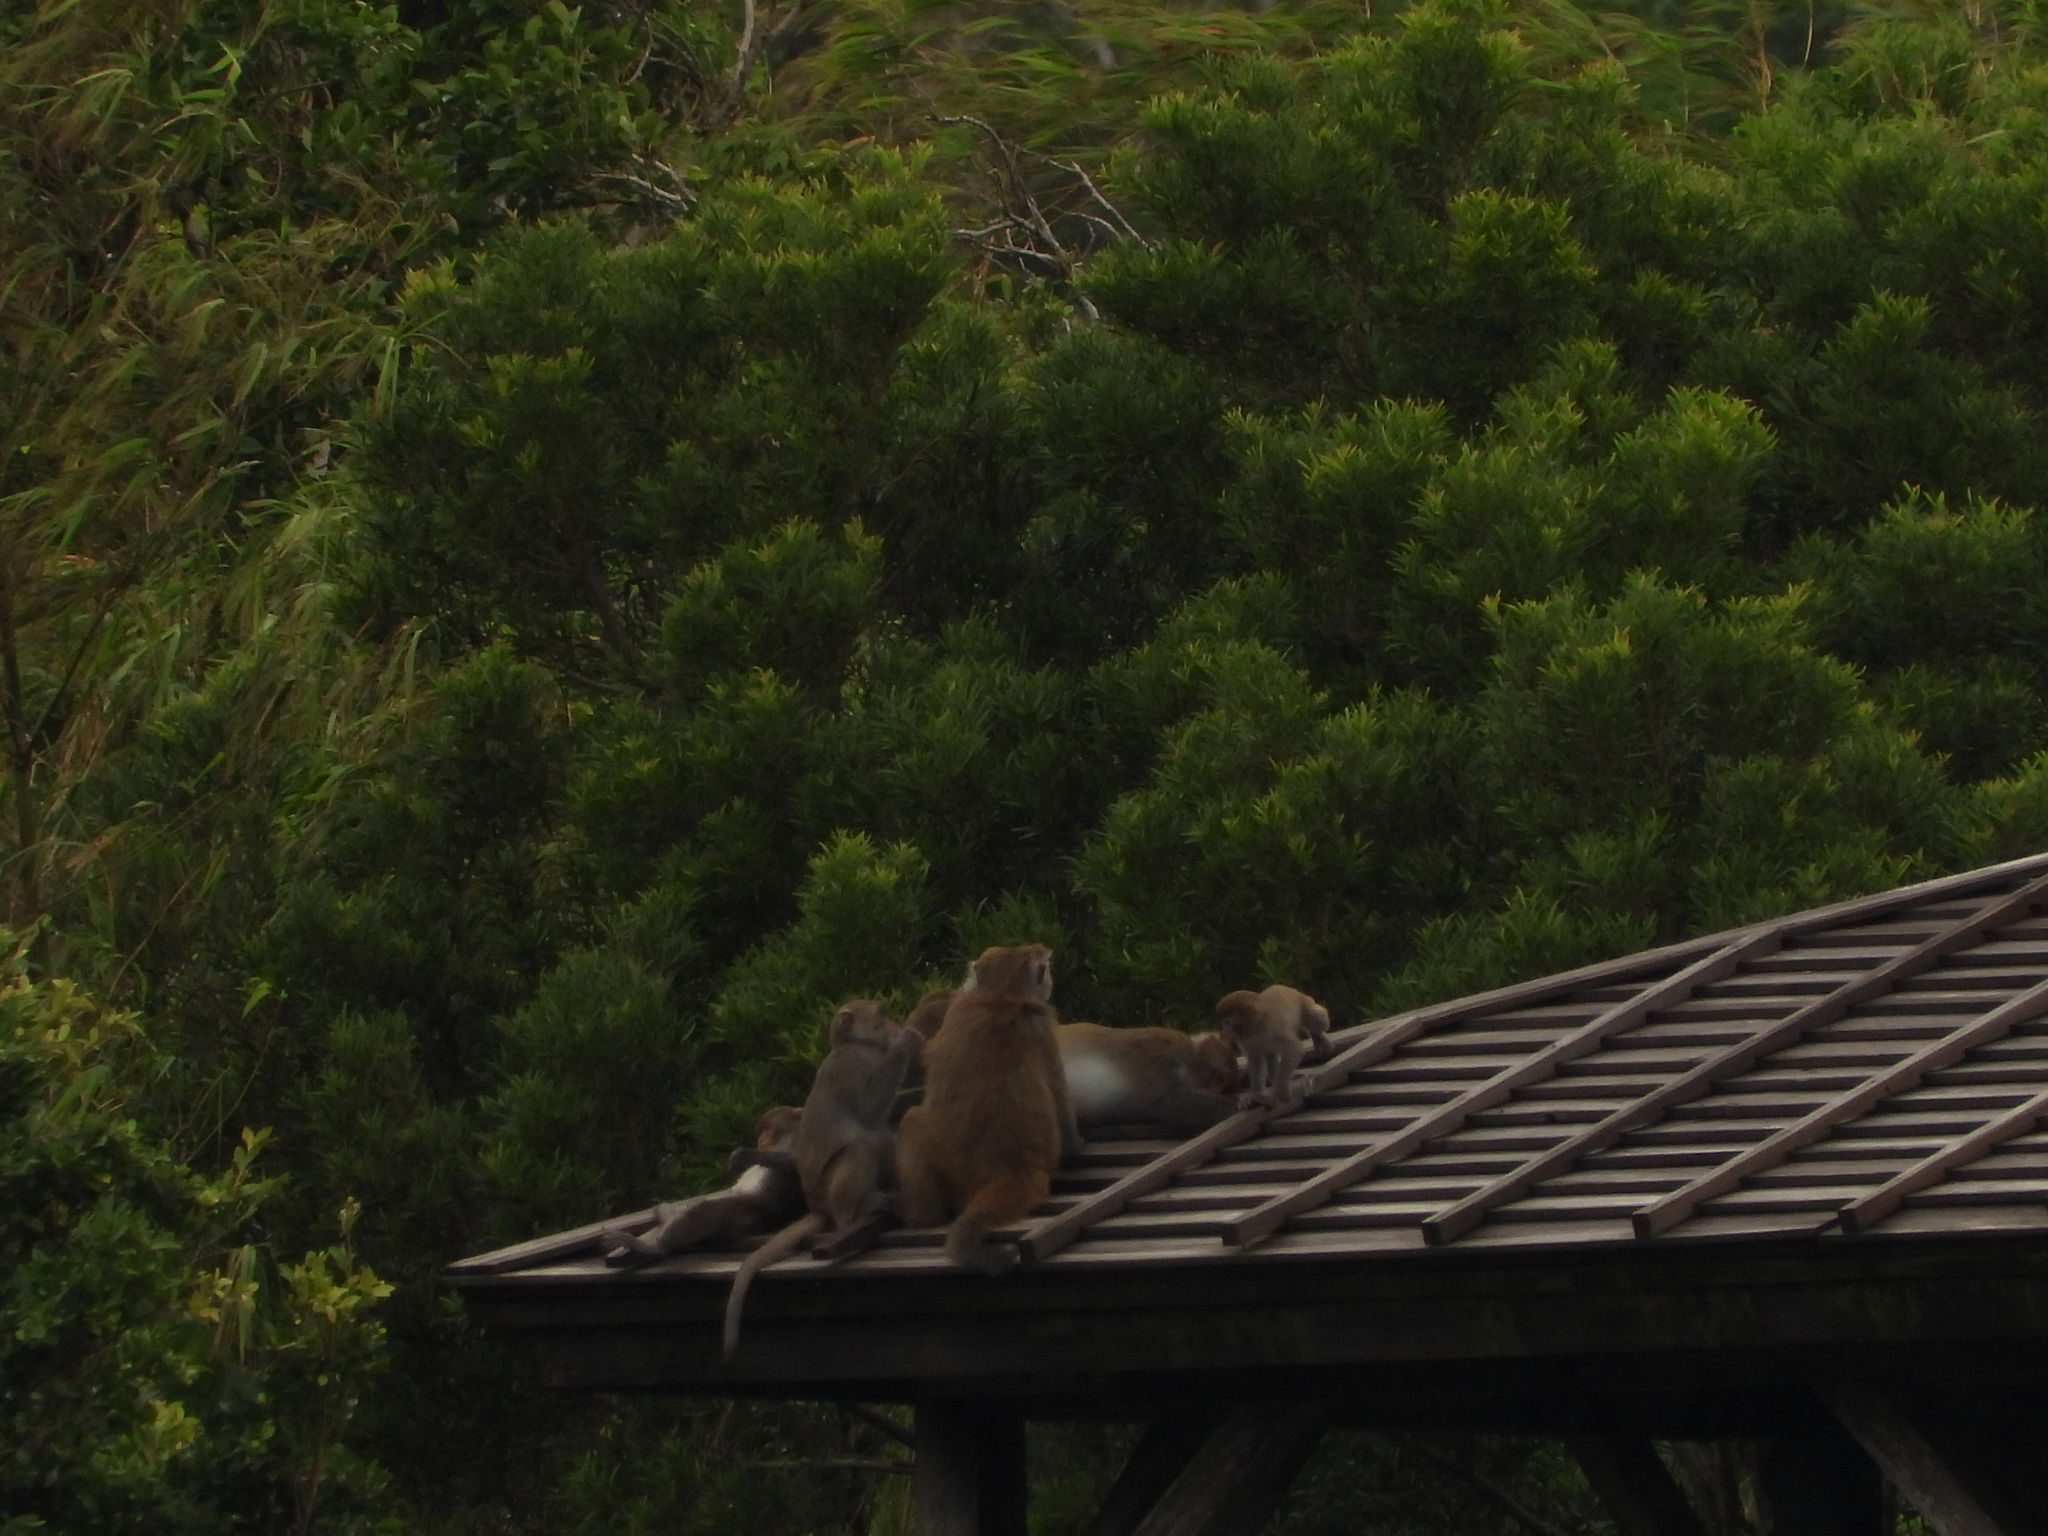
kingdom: Animalia
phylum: Chordata
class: Mammalia
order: Primates
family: Cercopithecidae
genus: Macaca
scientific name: Macaca cyclopis
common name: Formosan rock macaque
